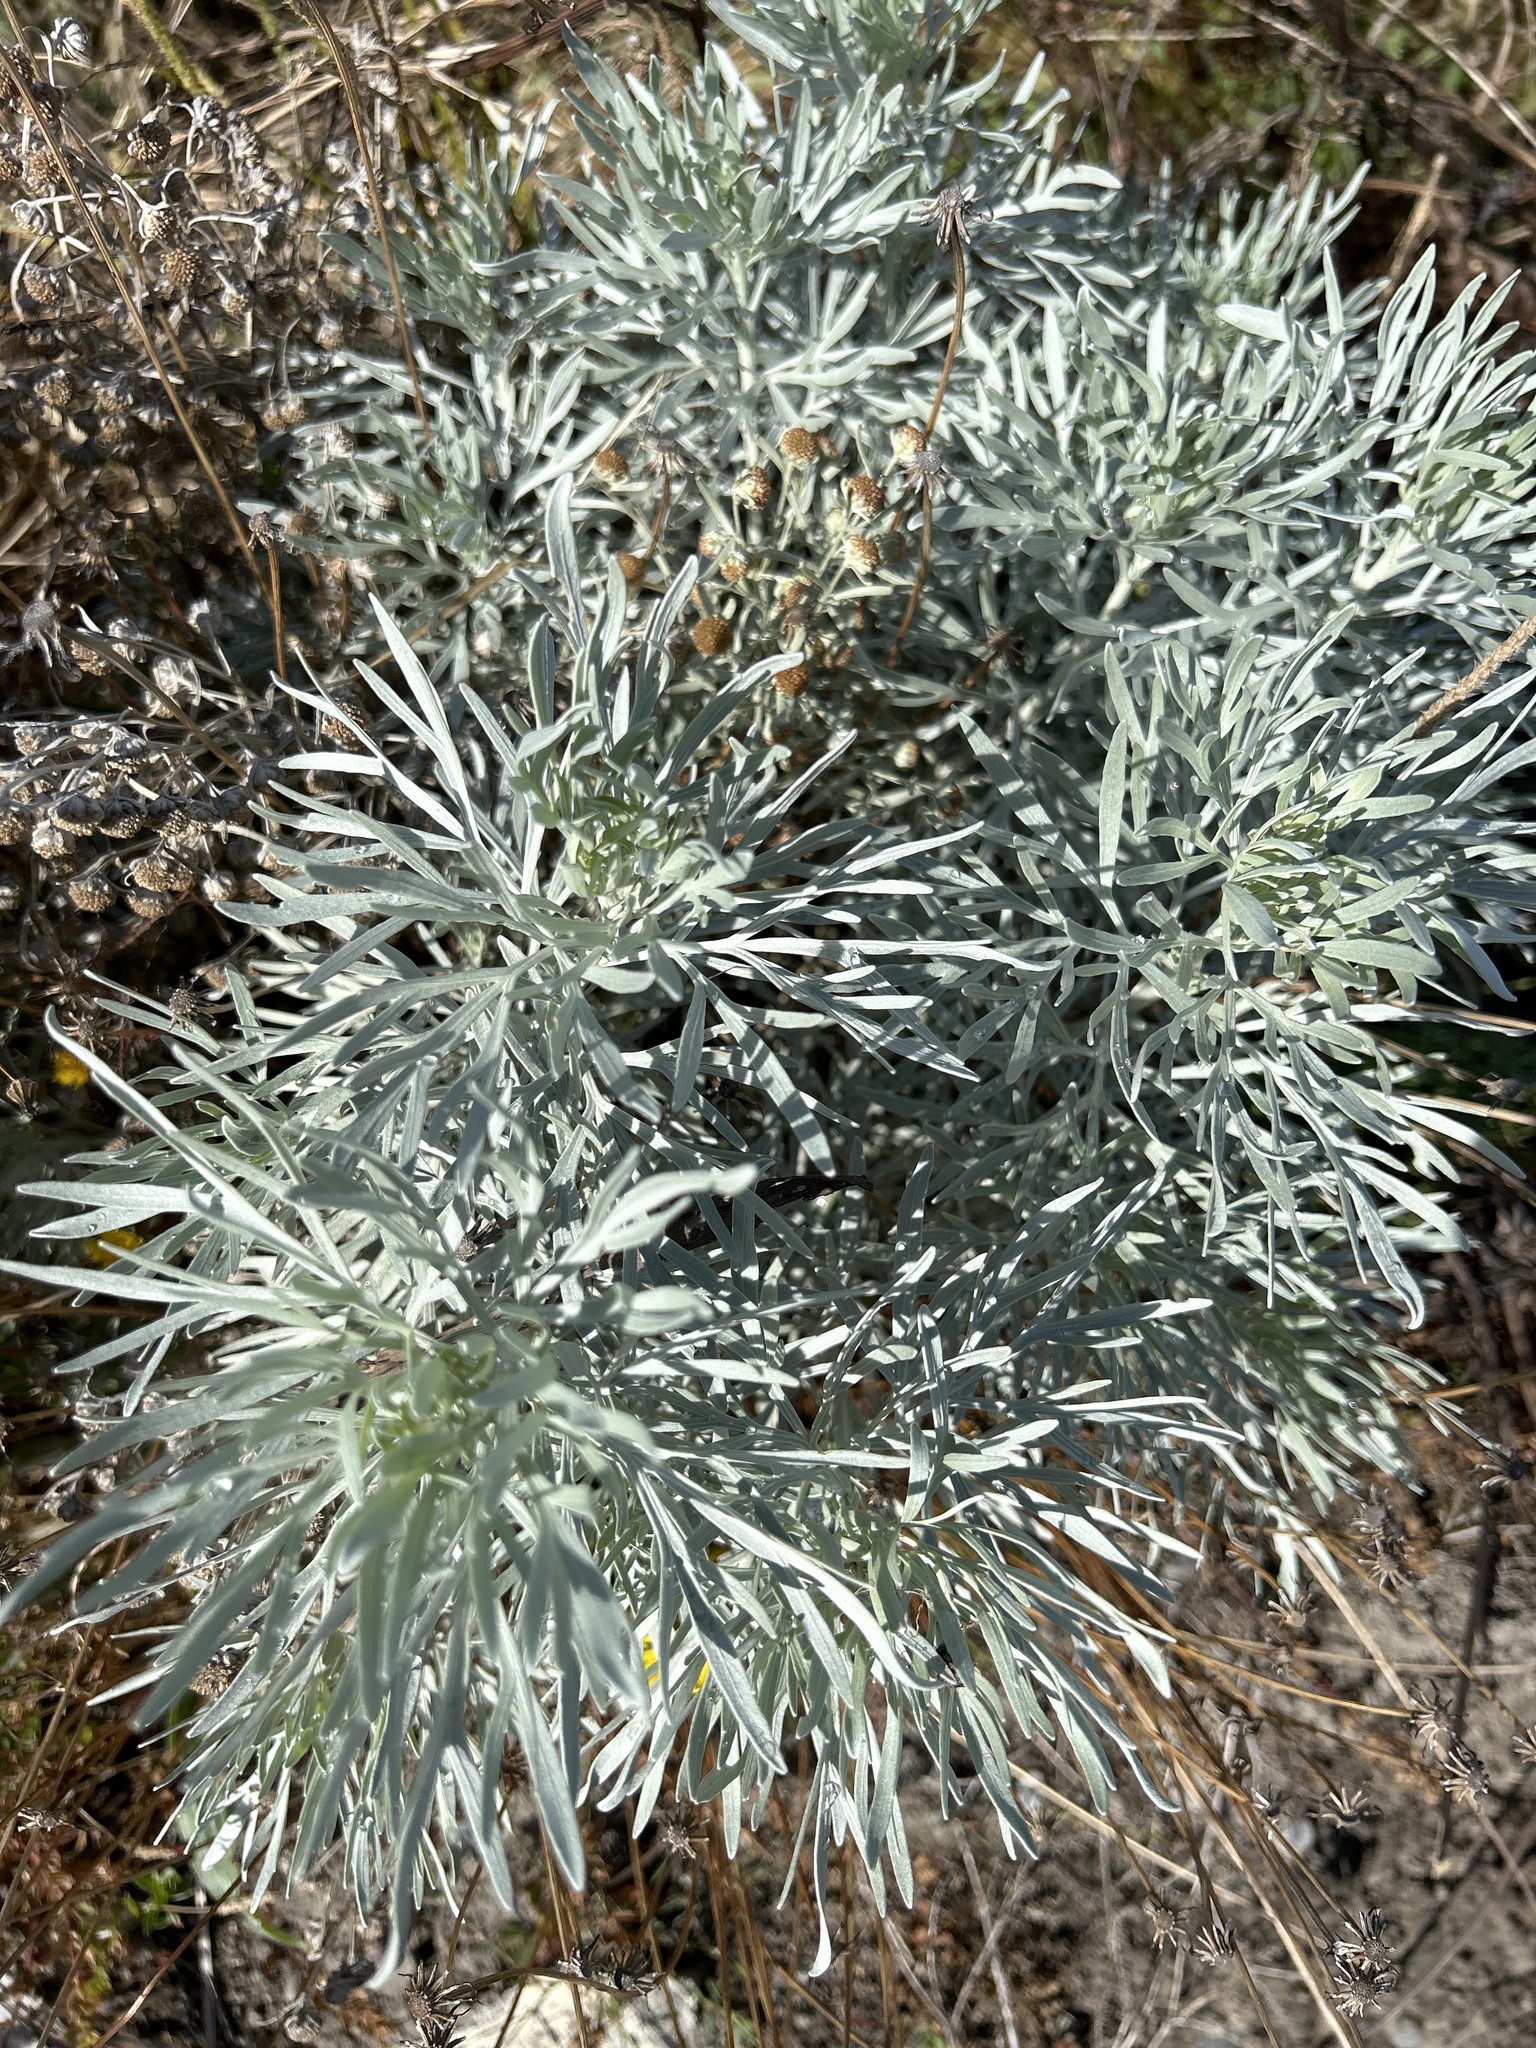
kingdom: Plantae
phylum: Tracheophyta
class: Magnoliopsida
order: Asterales
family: Asteraceae
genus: Artemisia
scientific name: Artemisia arborescens
